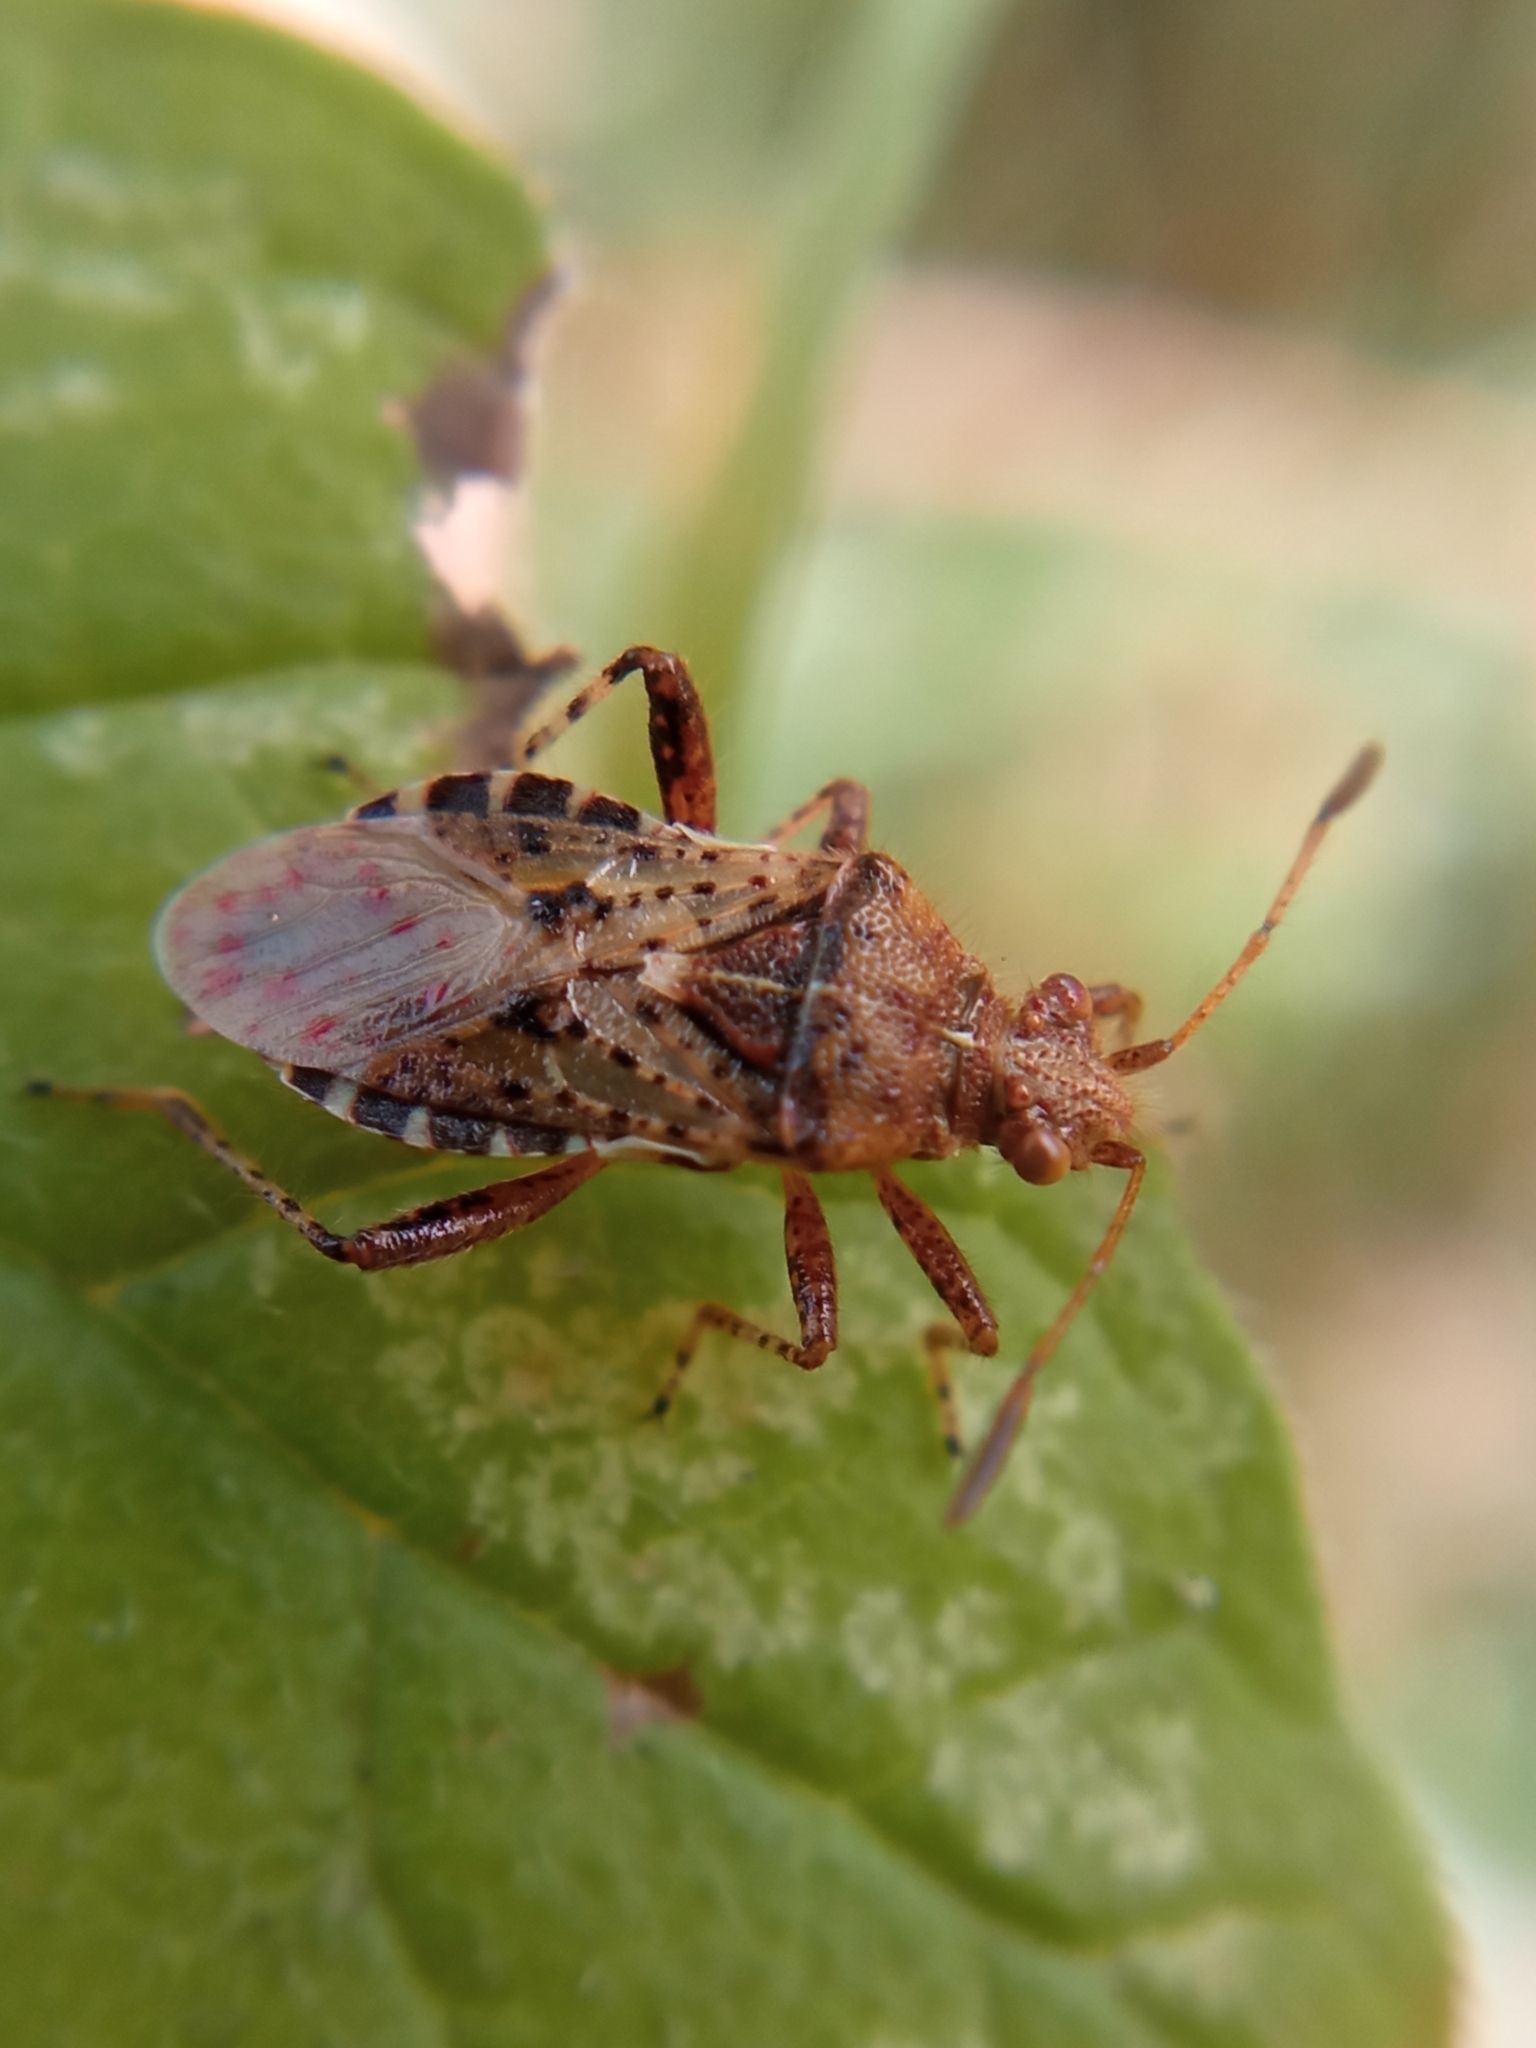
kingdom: Animalia
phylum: Arthropoda
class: Insecta
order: Hemiptera
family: Rhopalidae
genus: Rhopalus
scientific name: Rhopalus subrufus
